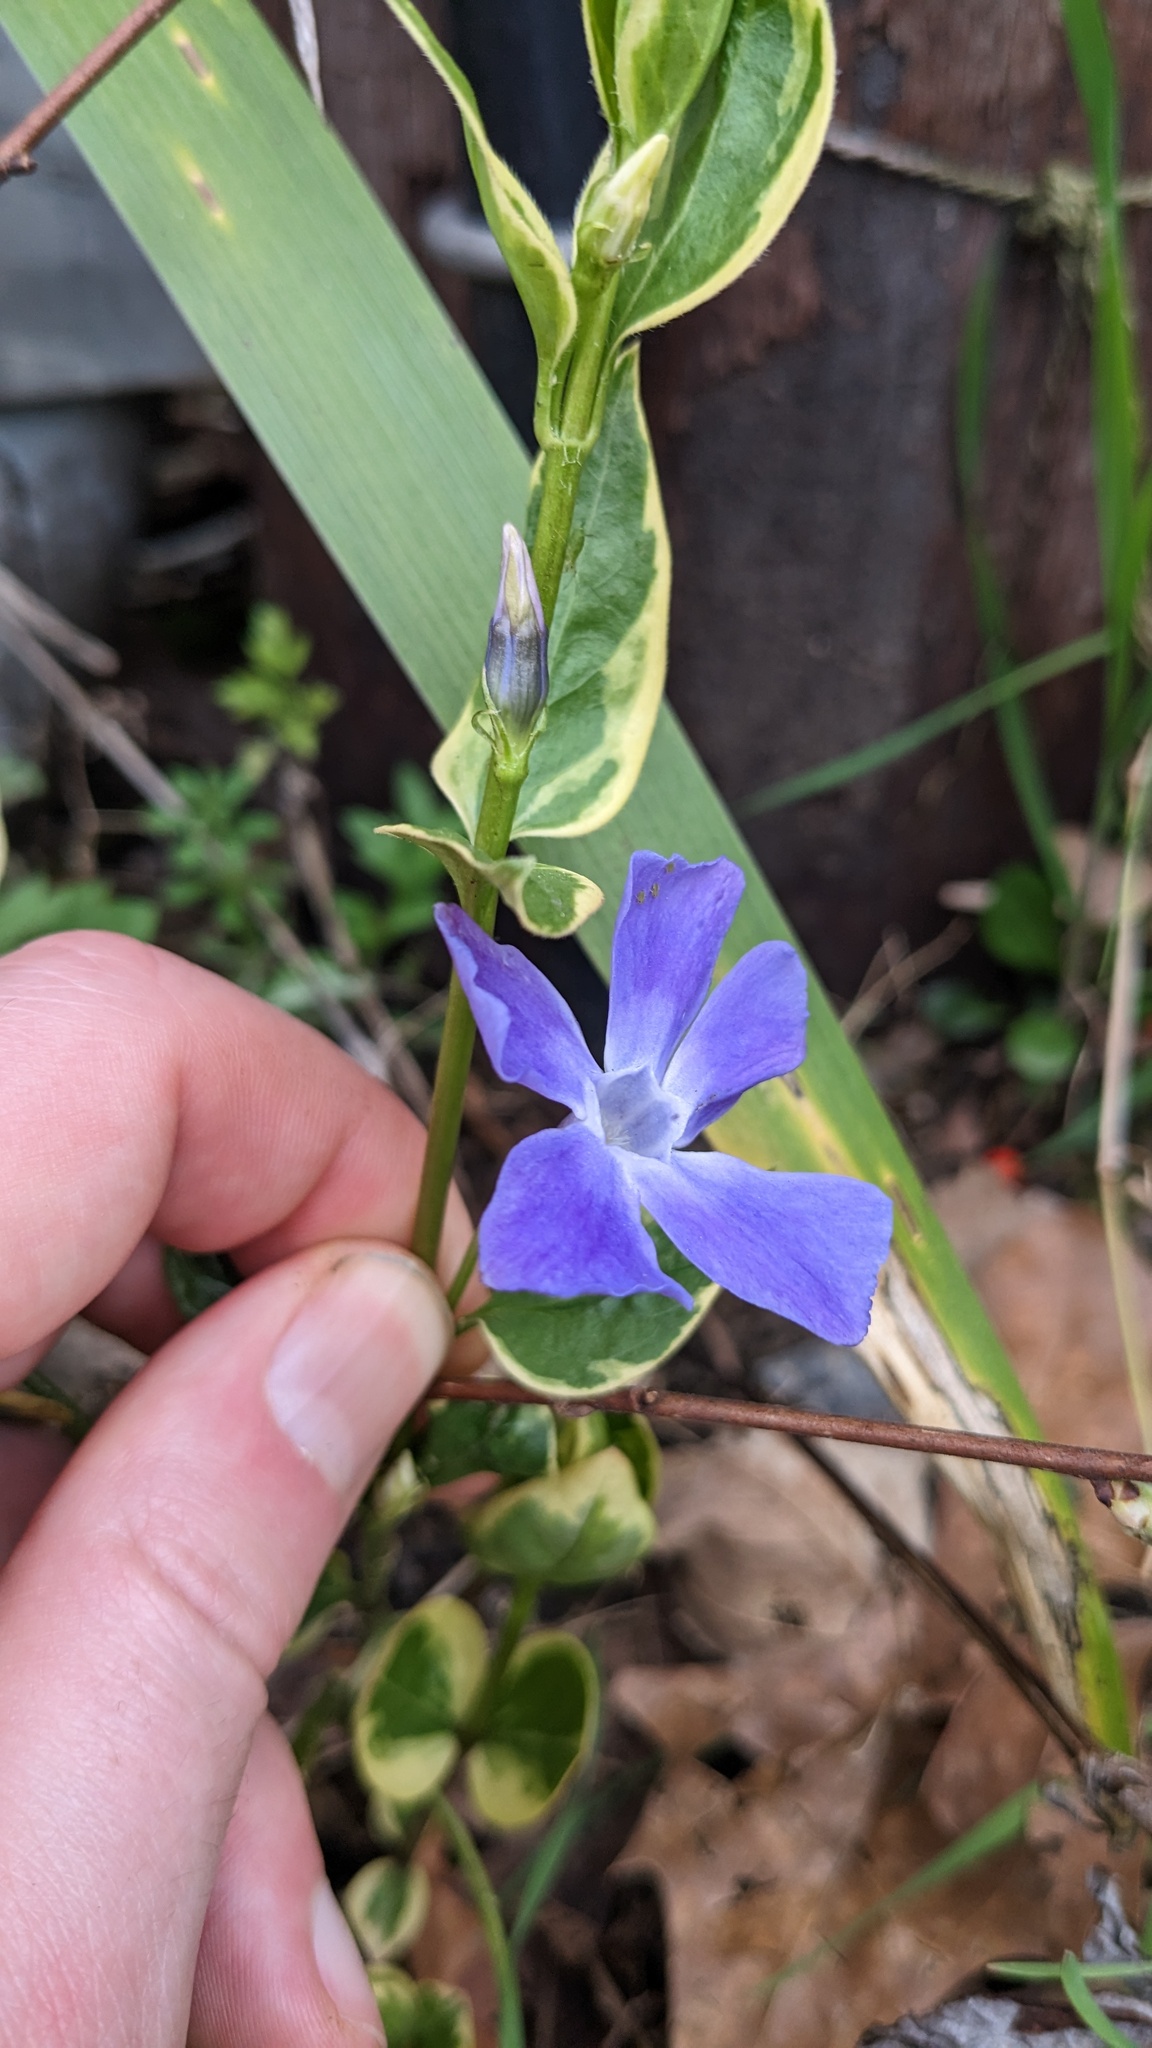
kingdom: Plantae
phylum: Tracheophyta
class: Magnoliopsida
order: Gentianales
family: Apocynaceae
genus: Vinca
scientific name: Vinca major
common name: Greater periwinkle
